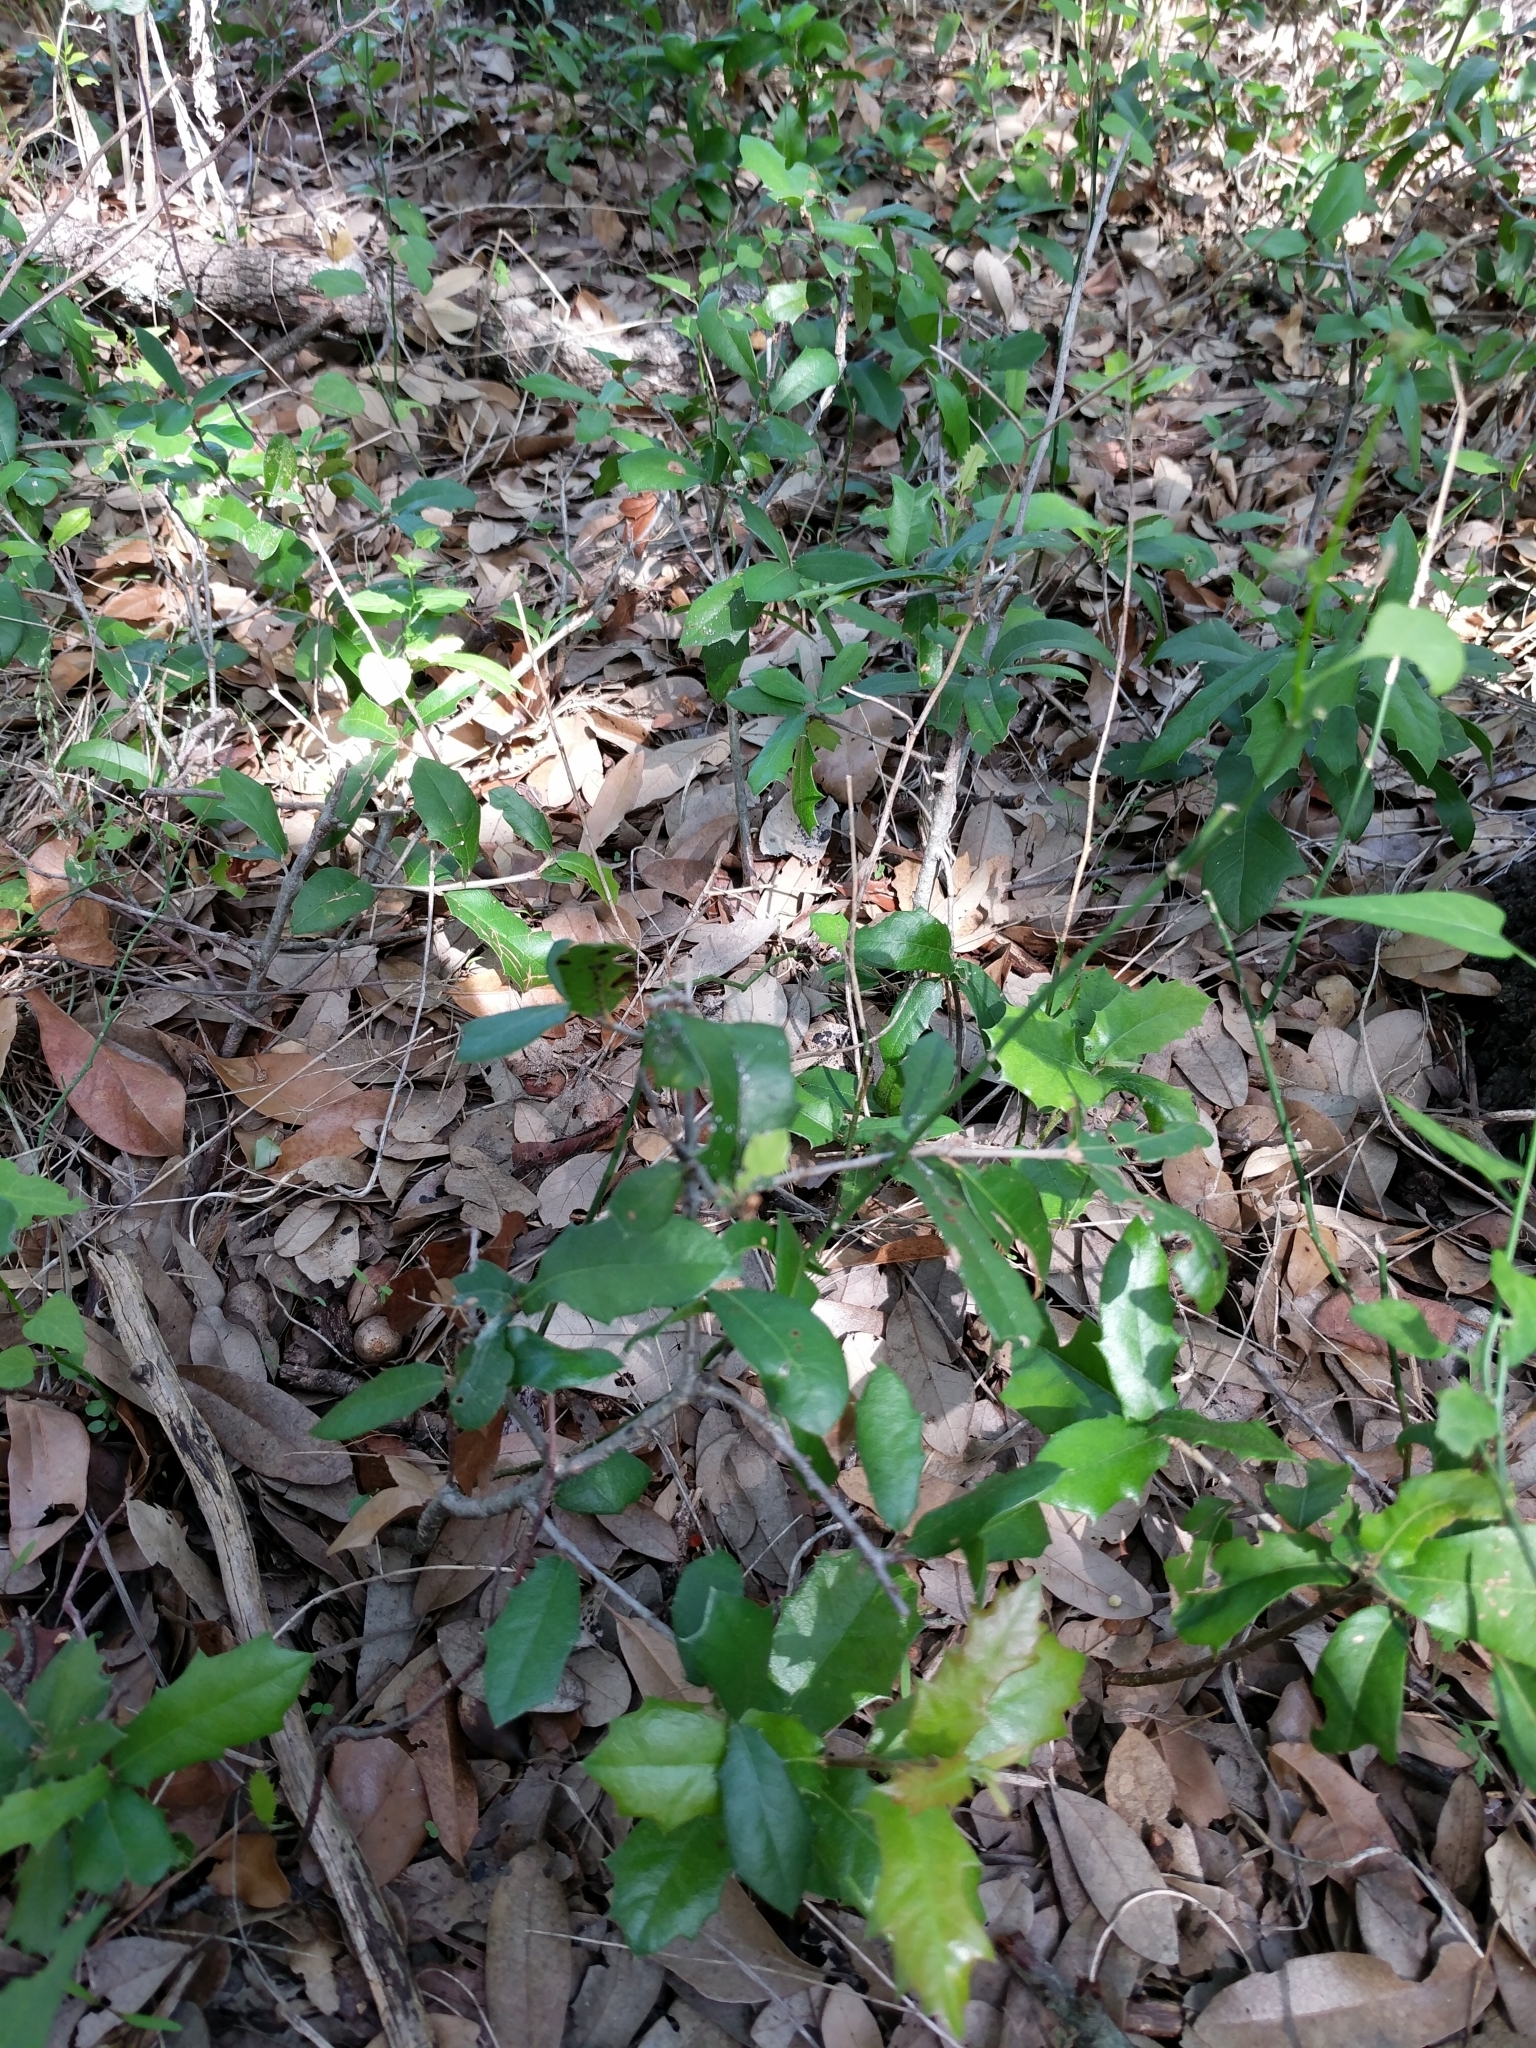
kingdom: Plantae
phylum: Tracheophyta
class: Magnoliopsida
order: Fagales
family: Fagaceae
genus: Quercus
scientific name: Quercus fusiformis
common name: Texas live oak
